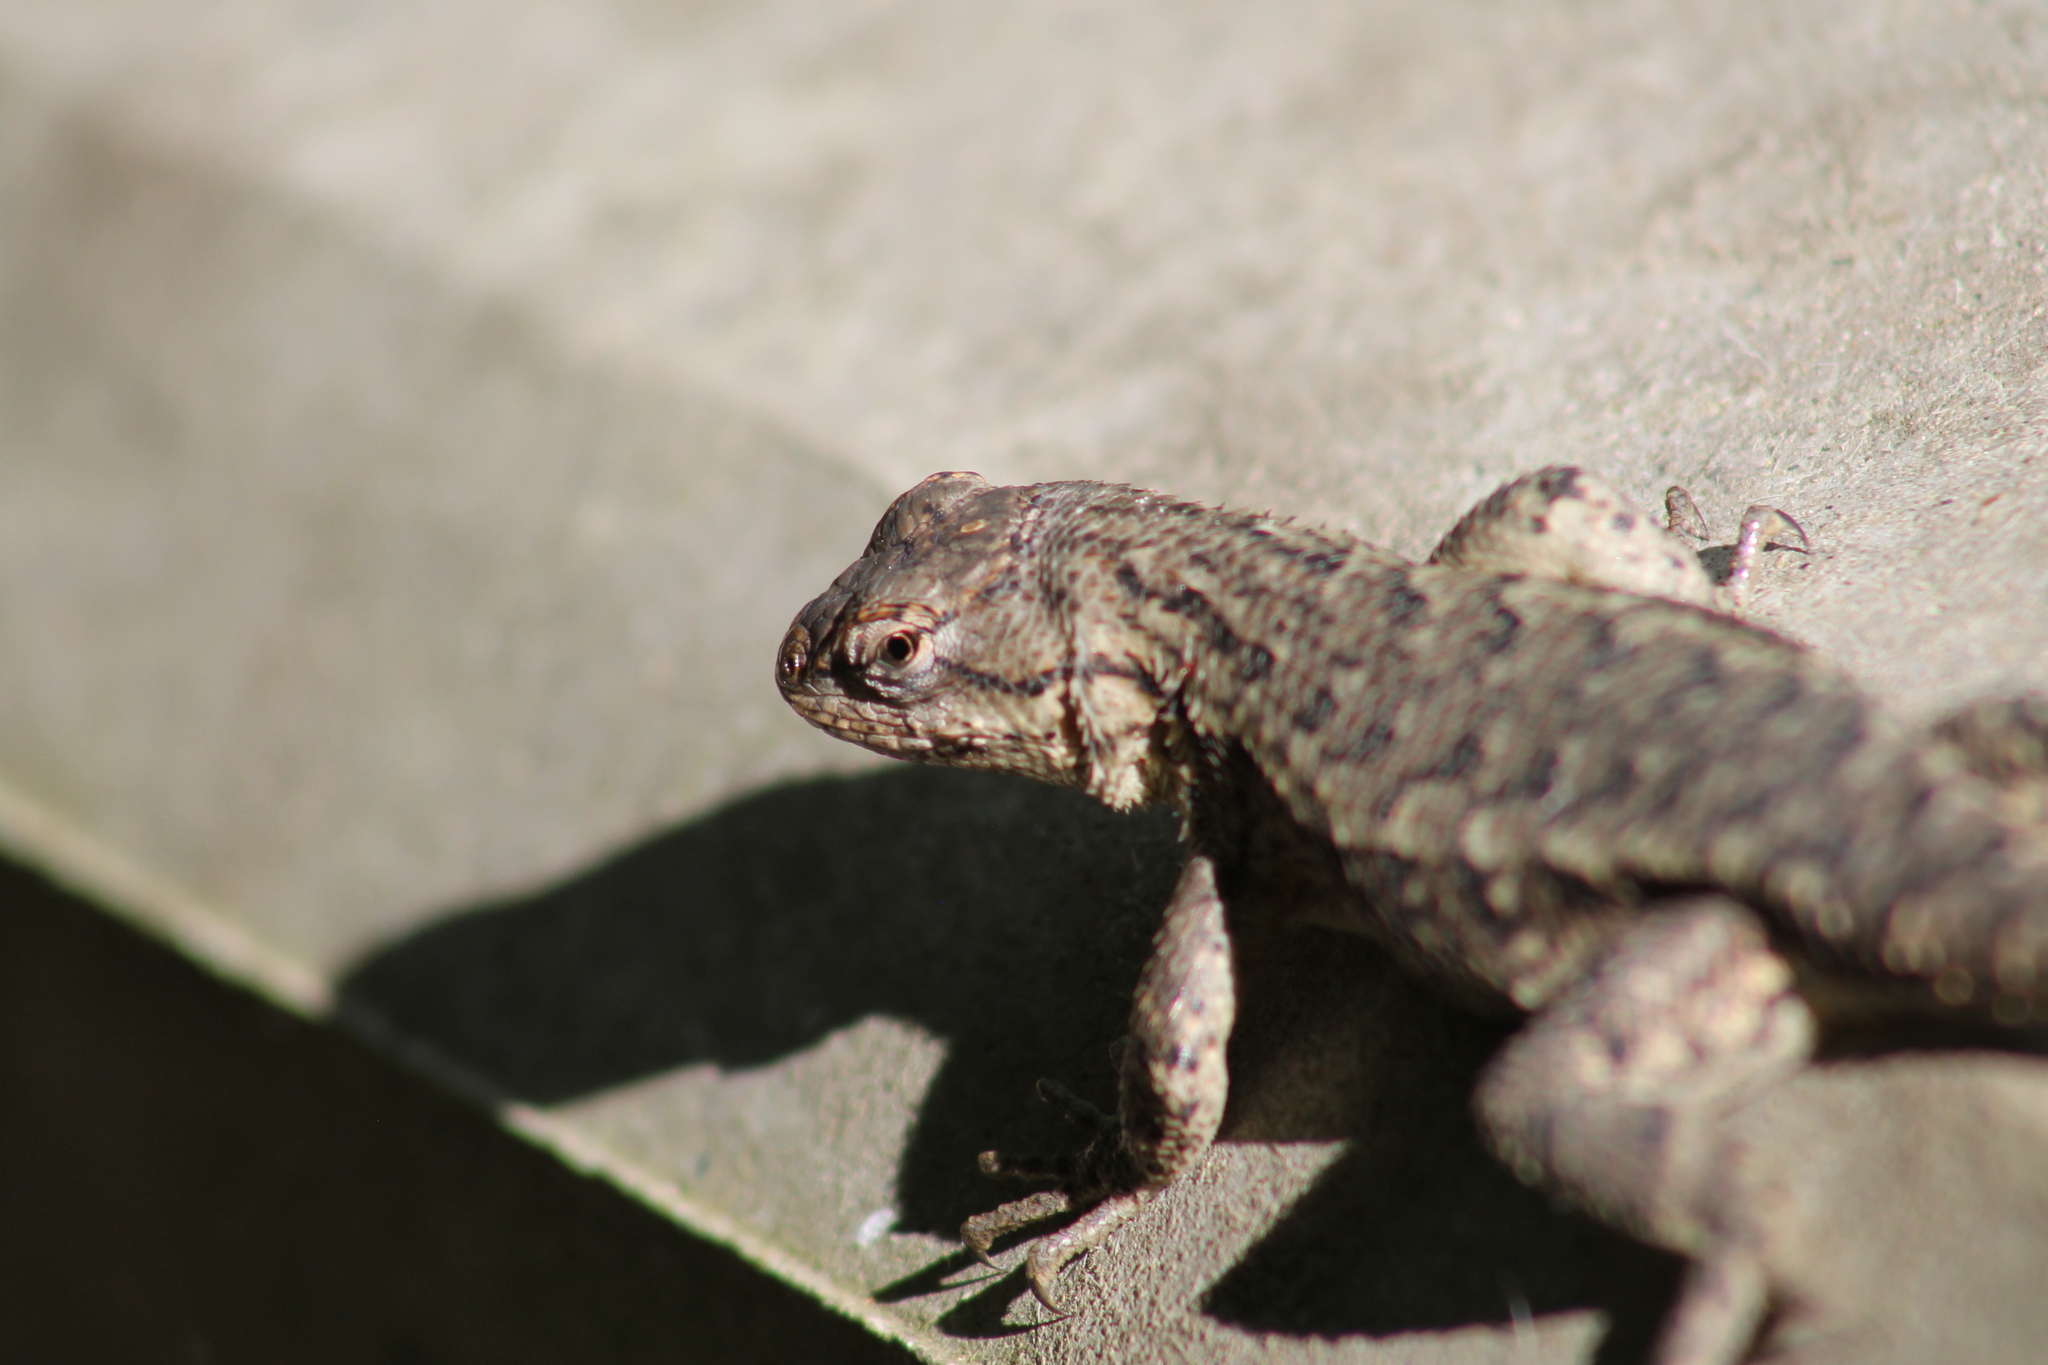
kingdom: Animalia
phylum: Chordata
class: Squamata
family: Phrynosomatidae
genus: Sceloporus
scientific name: Sceloporus undulatus
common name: Eastern fence lizard
